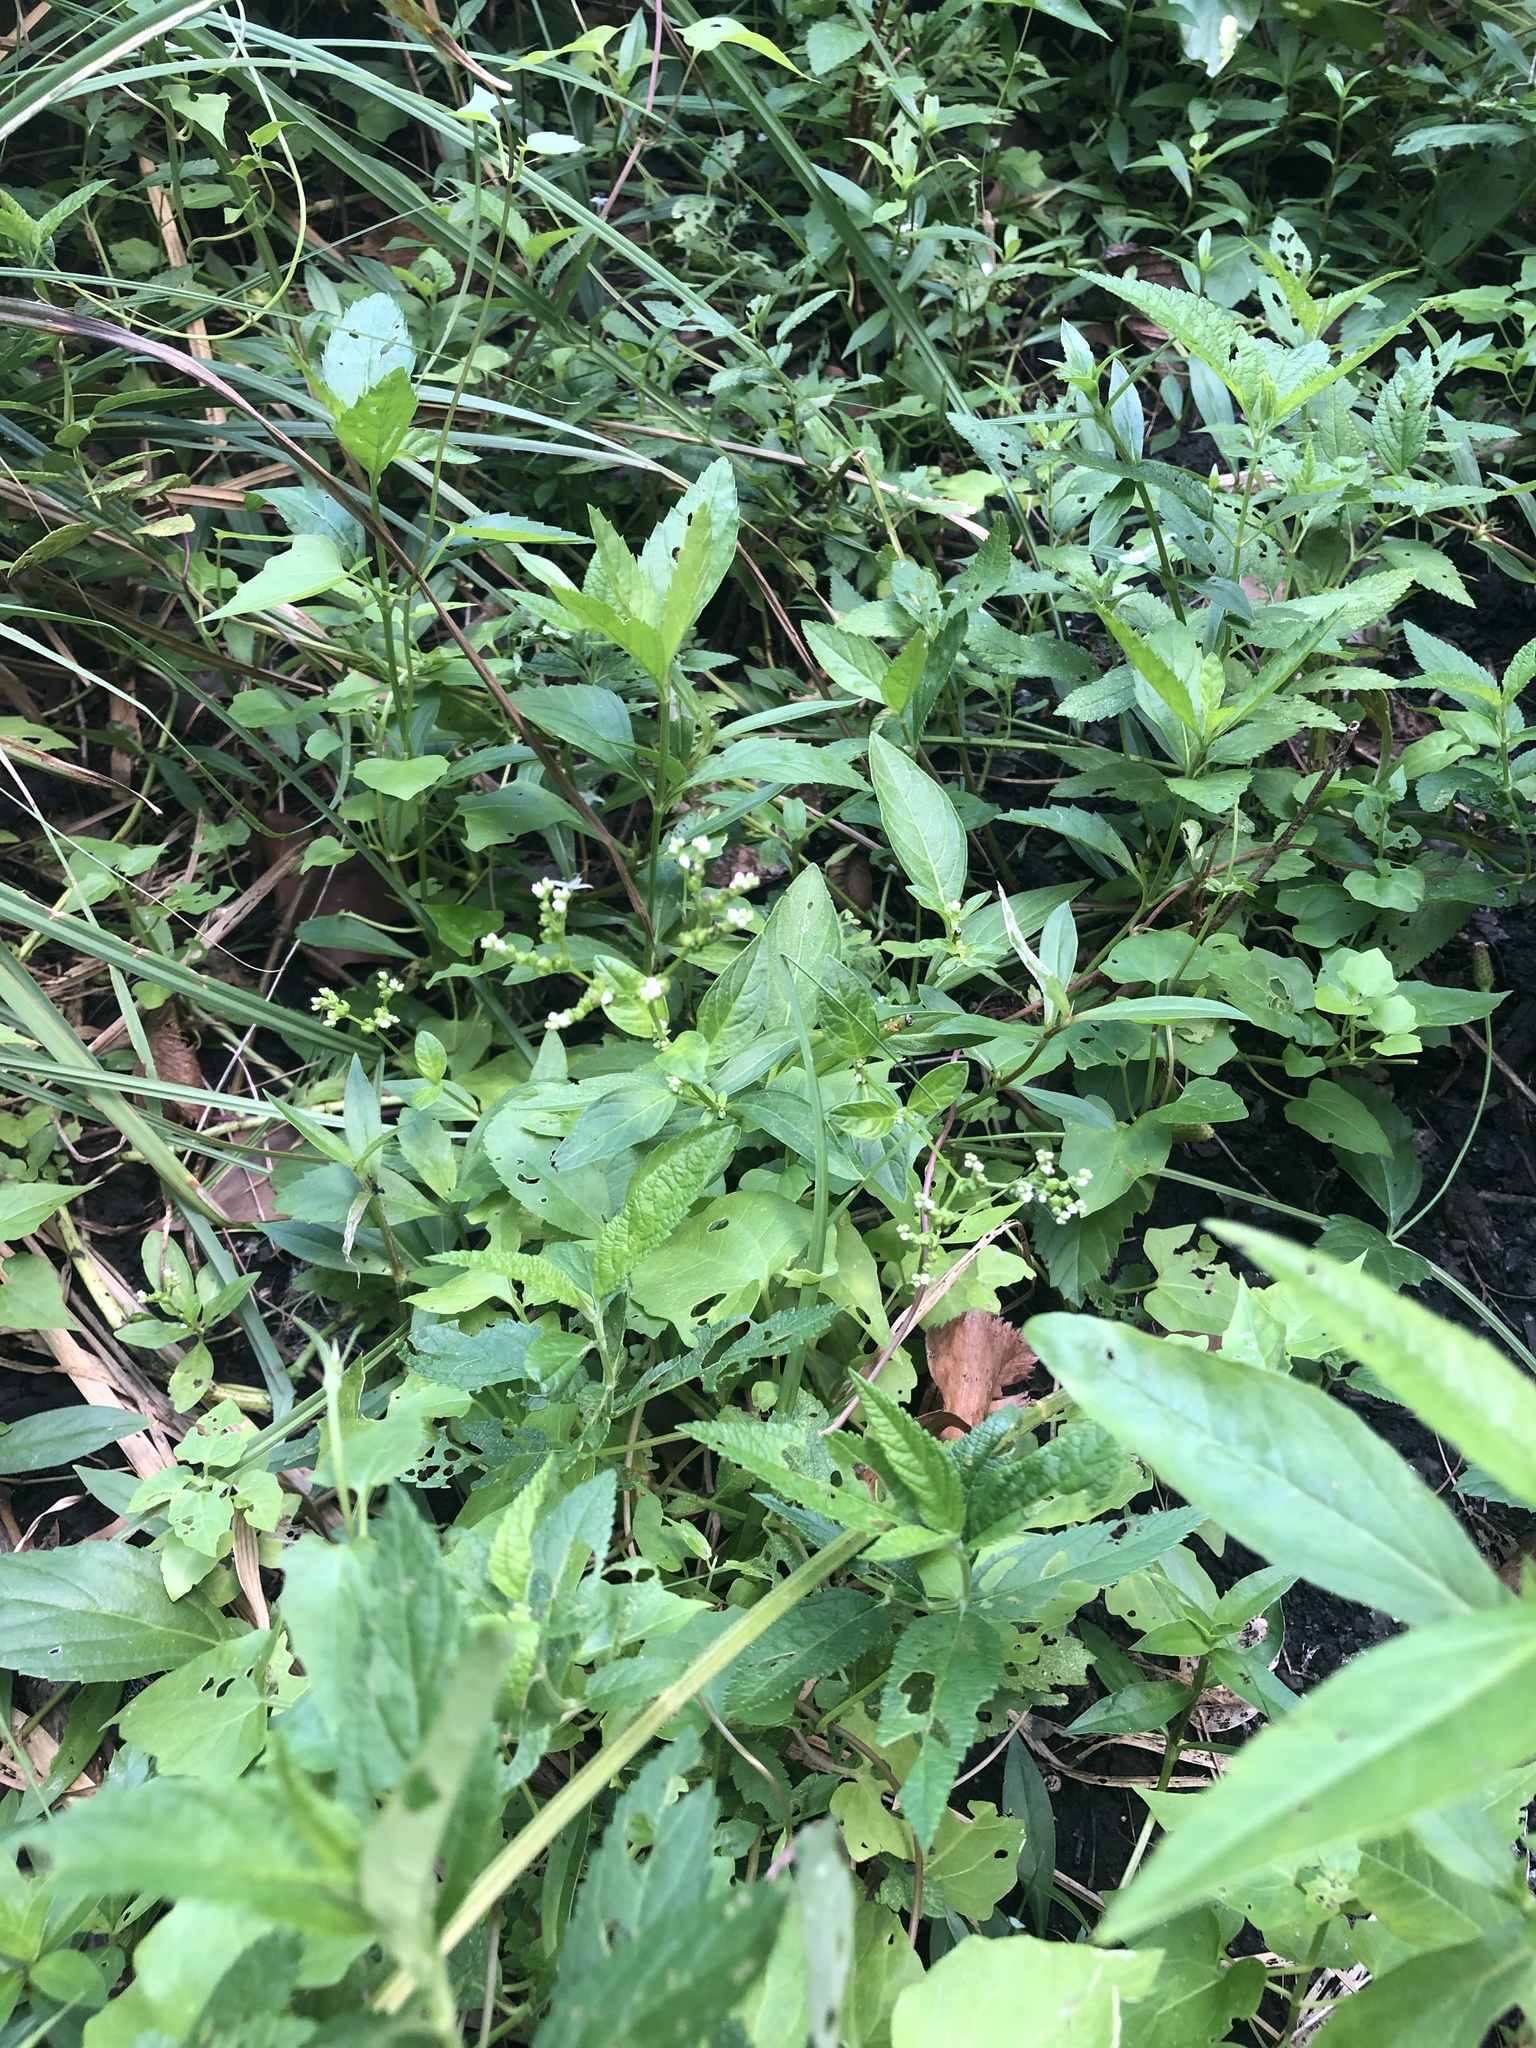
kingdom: Plantae
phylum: Tracheophyta
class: Magnoliopsida
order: Gentianales
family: Loganiaceae
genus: Mitreola
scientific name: Mitreola petiolata
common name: Lax hornpod
